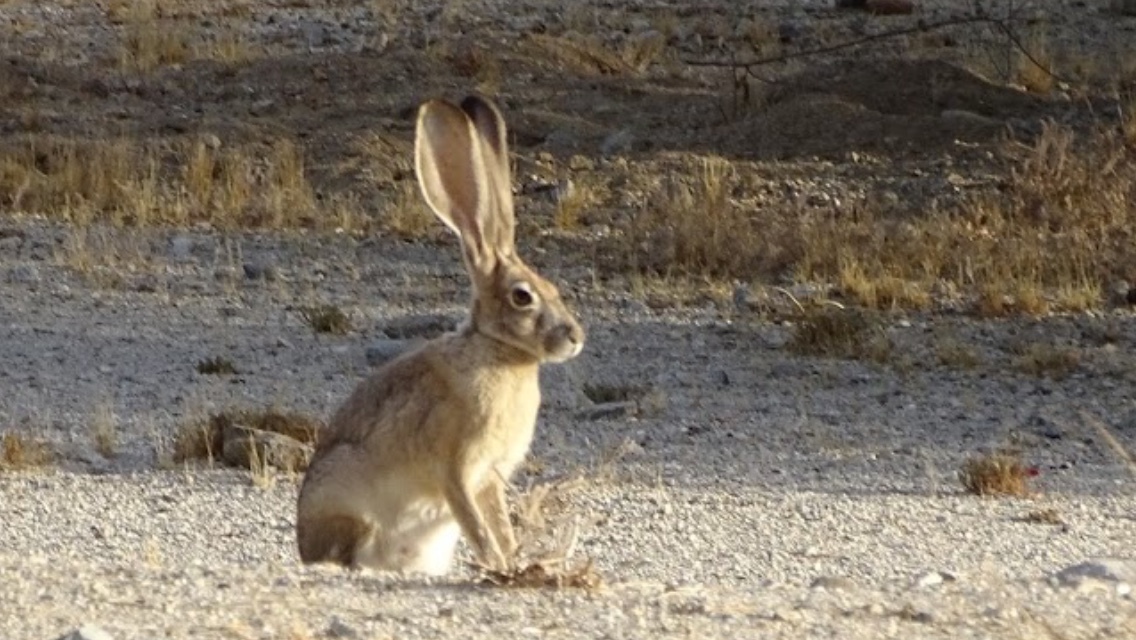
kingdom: Animalia
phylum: Chordata
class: Mammalia
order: Lagomorpha
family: Leporidae
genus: Lepus
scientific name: Lepus californicus
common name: Black-tailed jackrabbit
